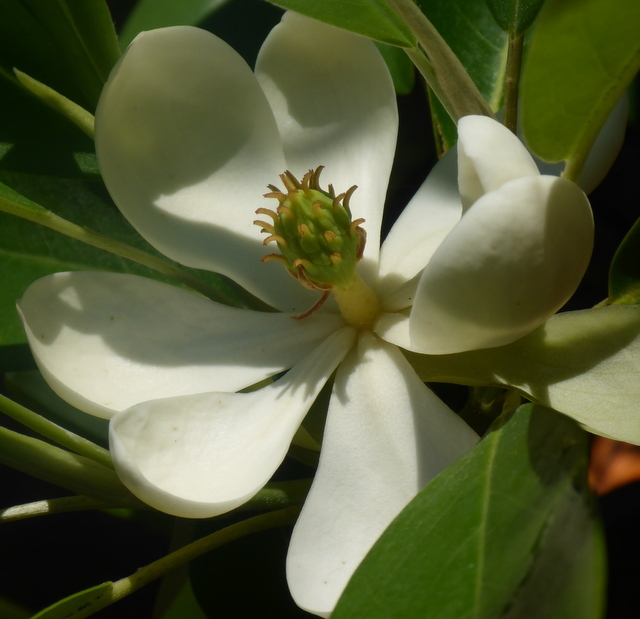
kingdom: Plantae
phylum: Tracheophyta
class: Magnoliopsida
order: Magnoliales
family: Magnoliaceae
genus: Magnolia
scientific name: Magnolia virginiana
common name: Swamp bay
